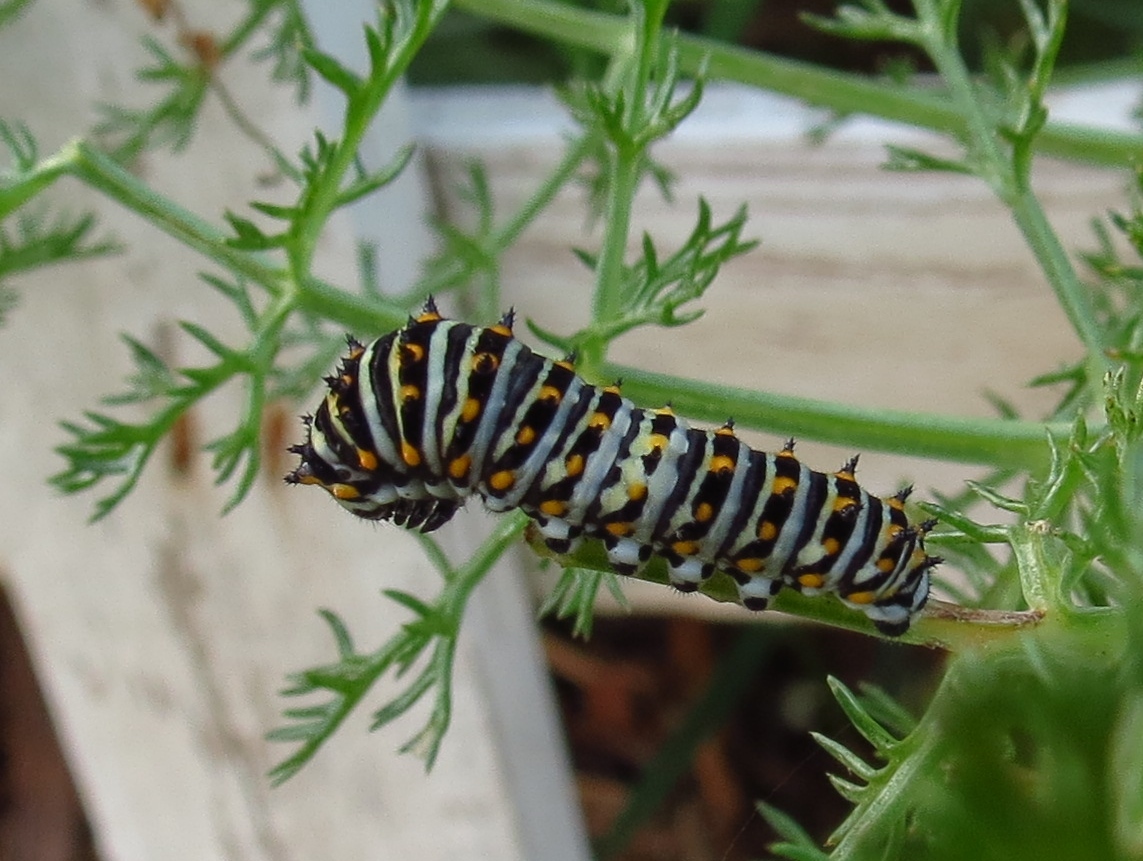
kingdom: Animalia
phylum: Arthropoda
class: Insecta
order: Lepidoptera
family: Papilionidae
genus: Papilio
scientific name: Papilio polyxenes
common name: Black swallowtail
